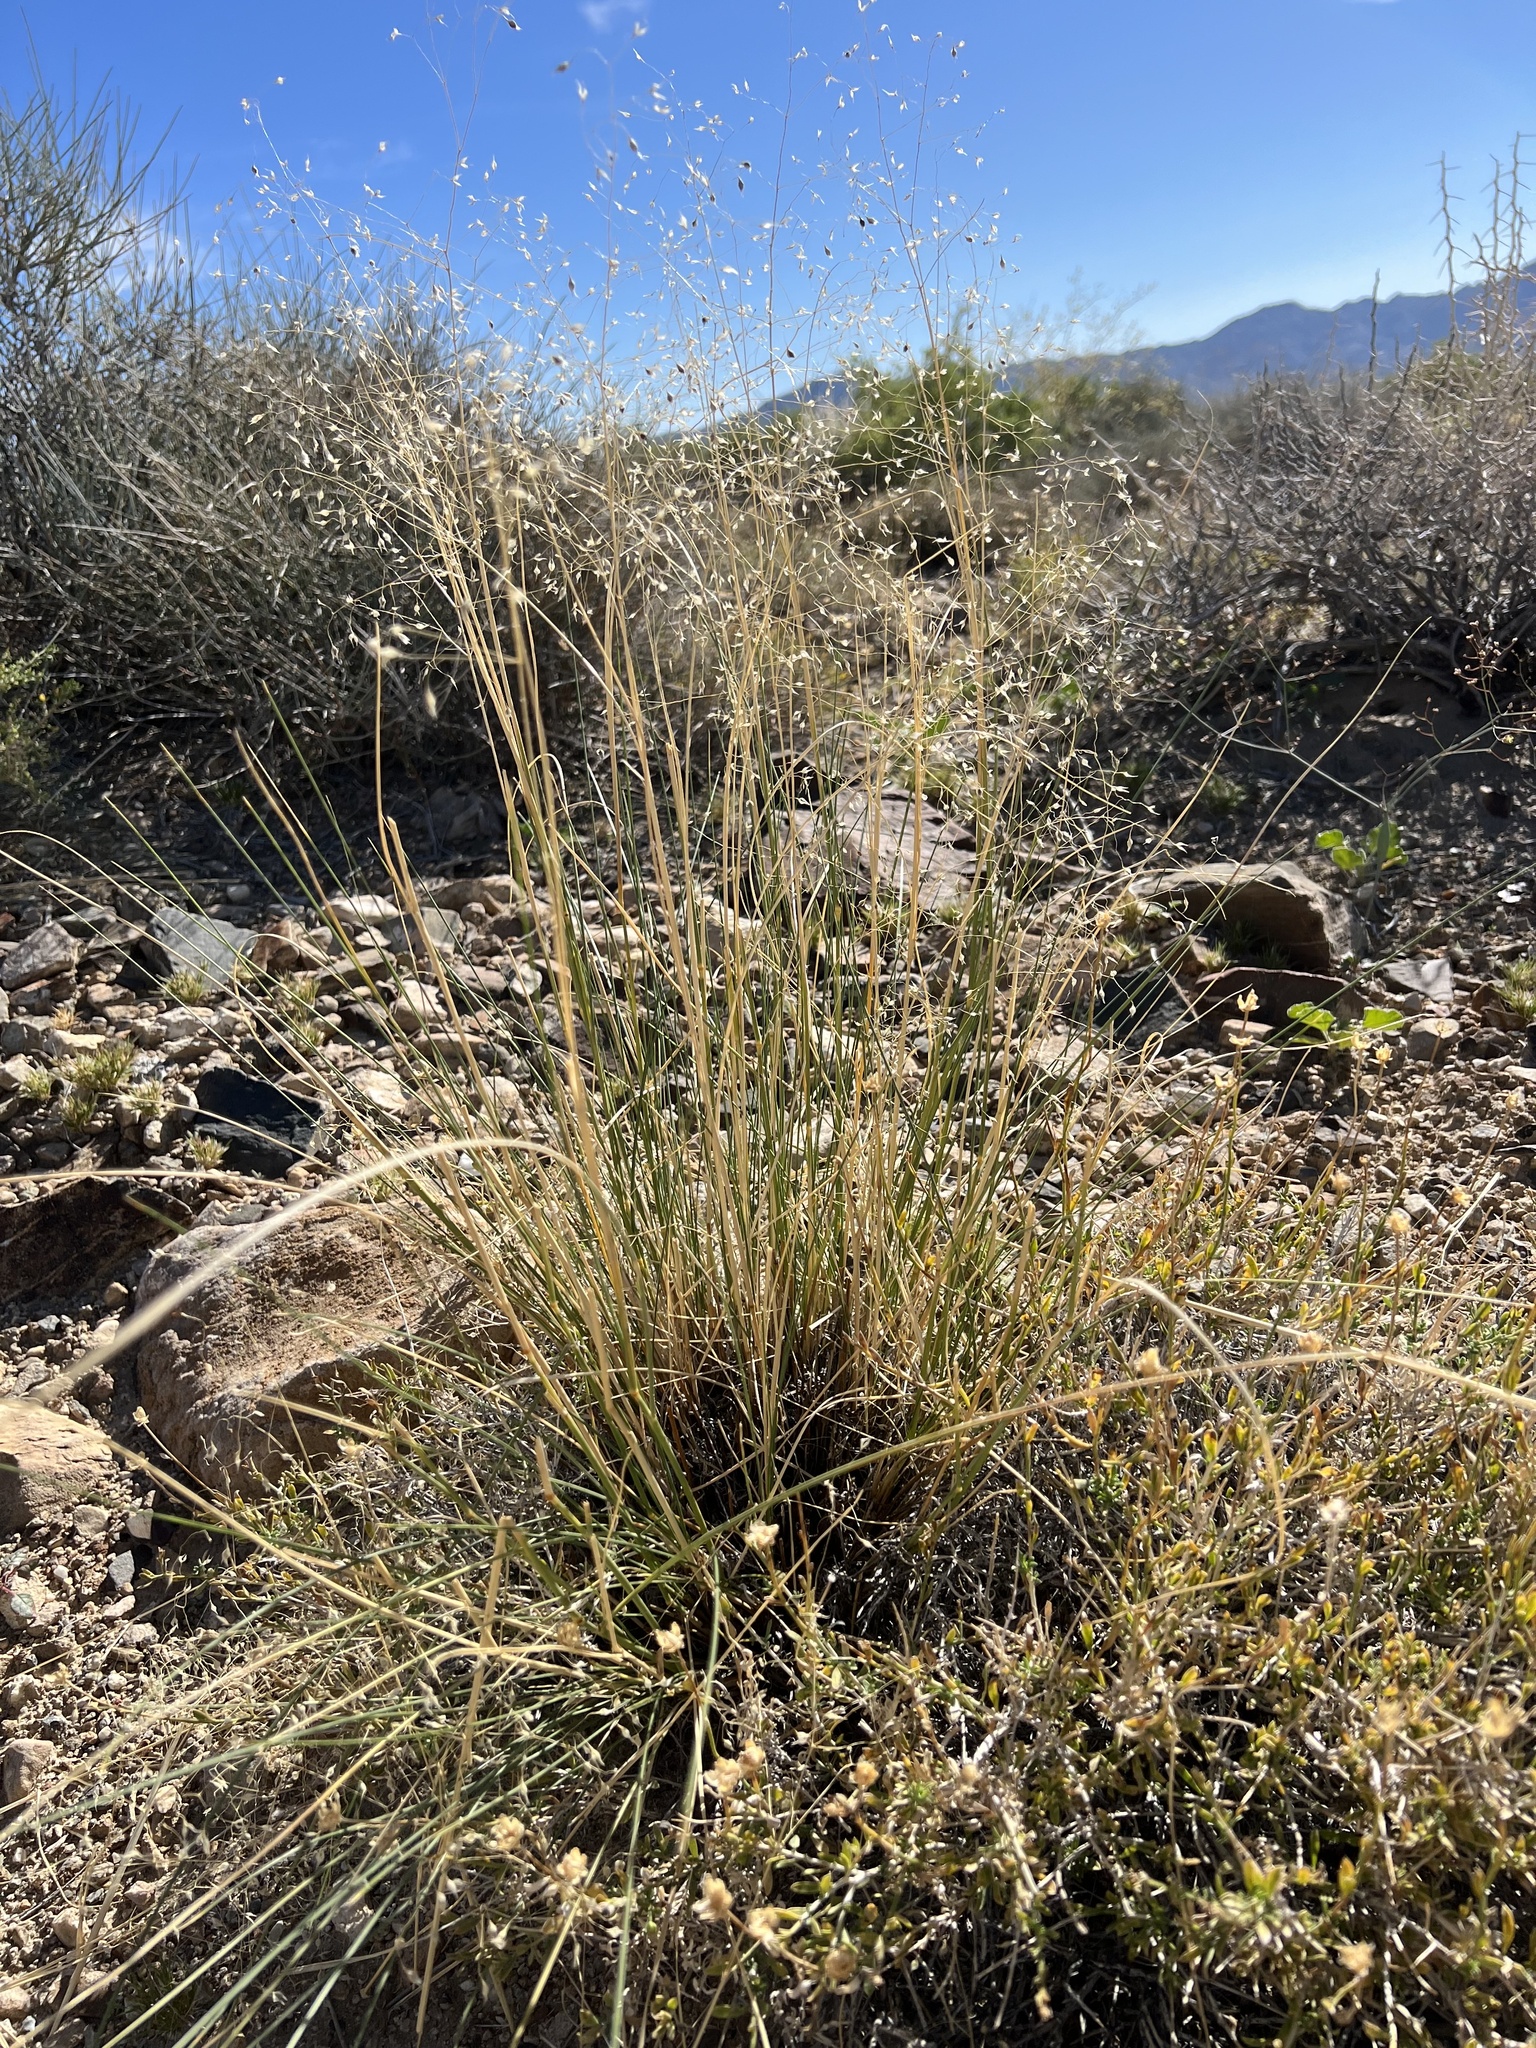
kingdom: Plantae
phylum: Tracheophyta
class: Liliopsida
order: Poales
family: Poaceae
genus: Eriocoma
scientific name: Eriocoma hymenoides
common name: Indian mountain ricegrass
